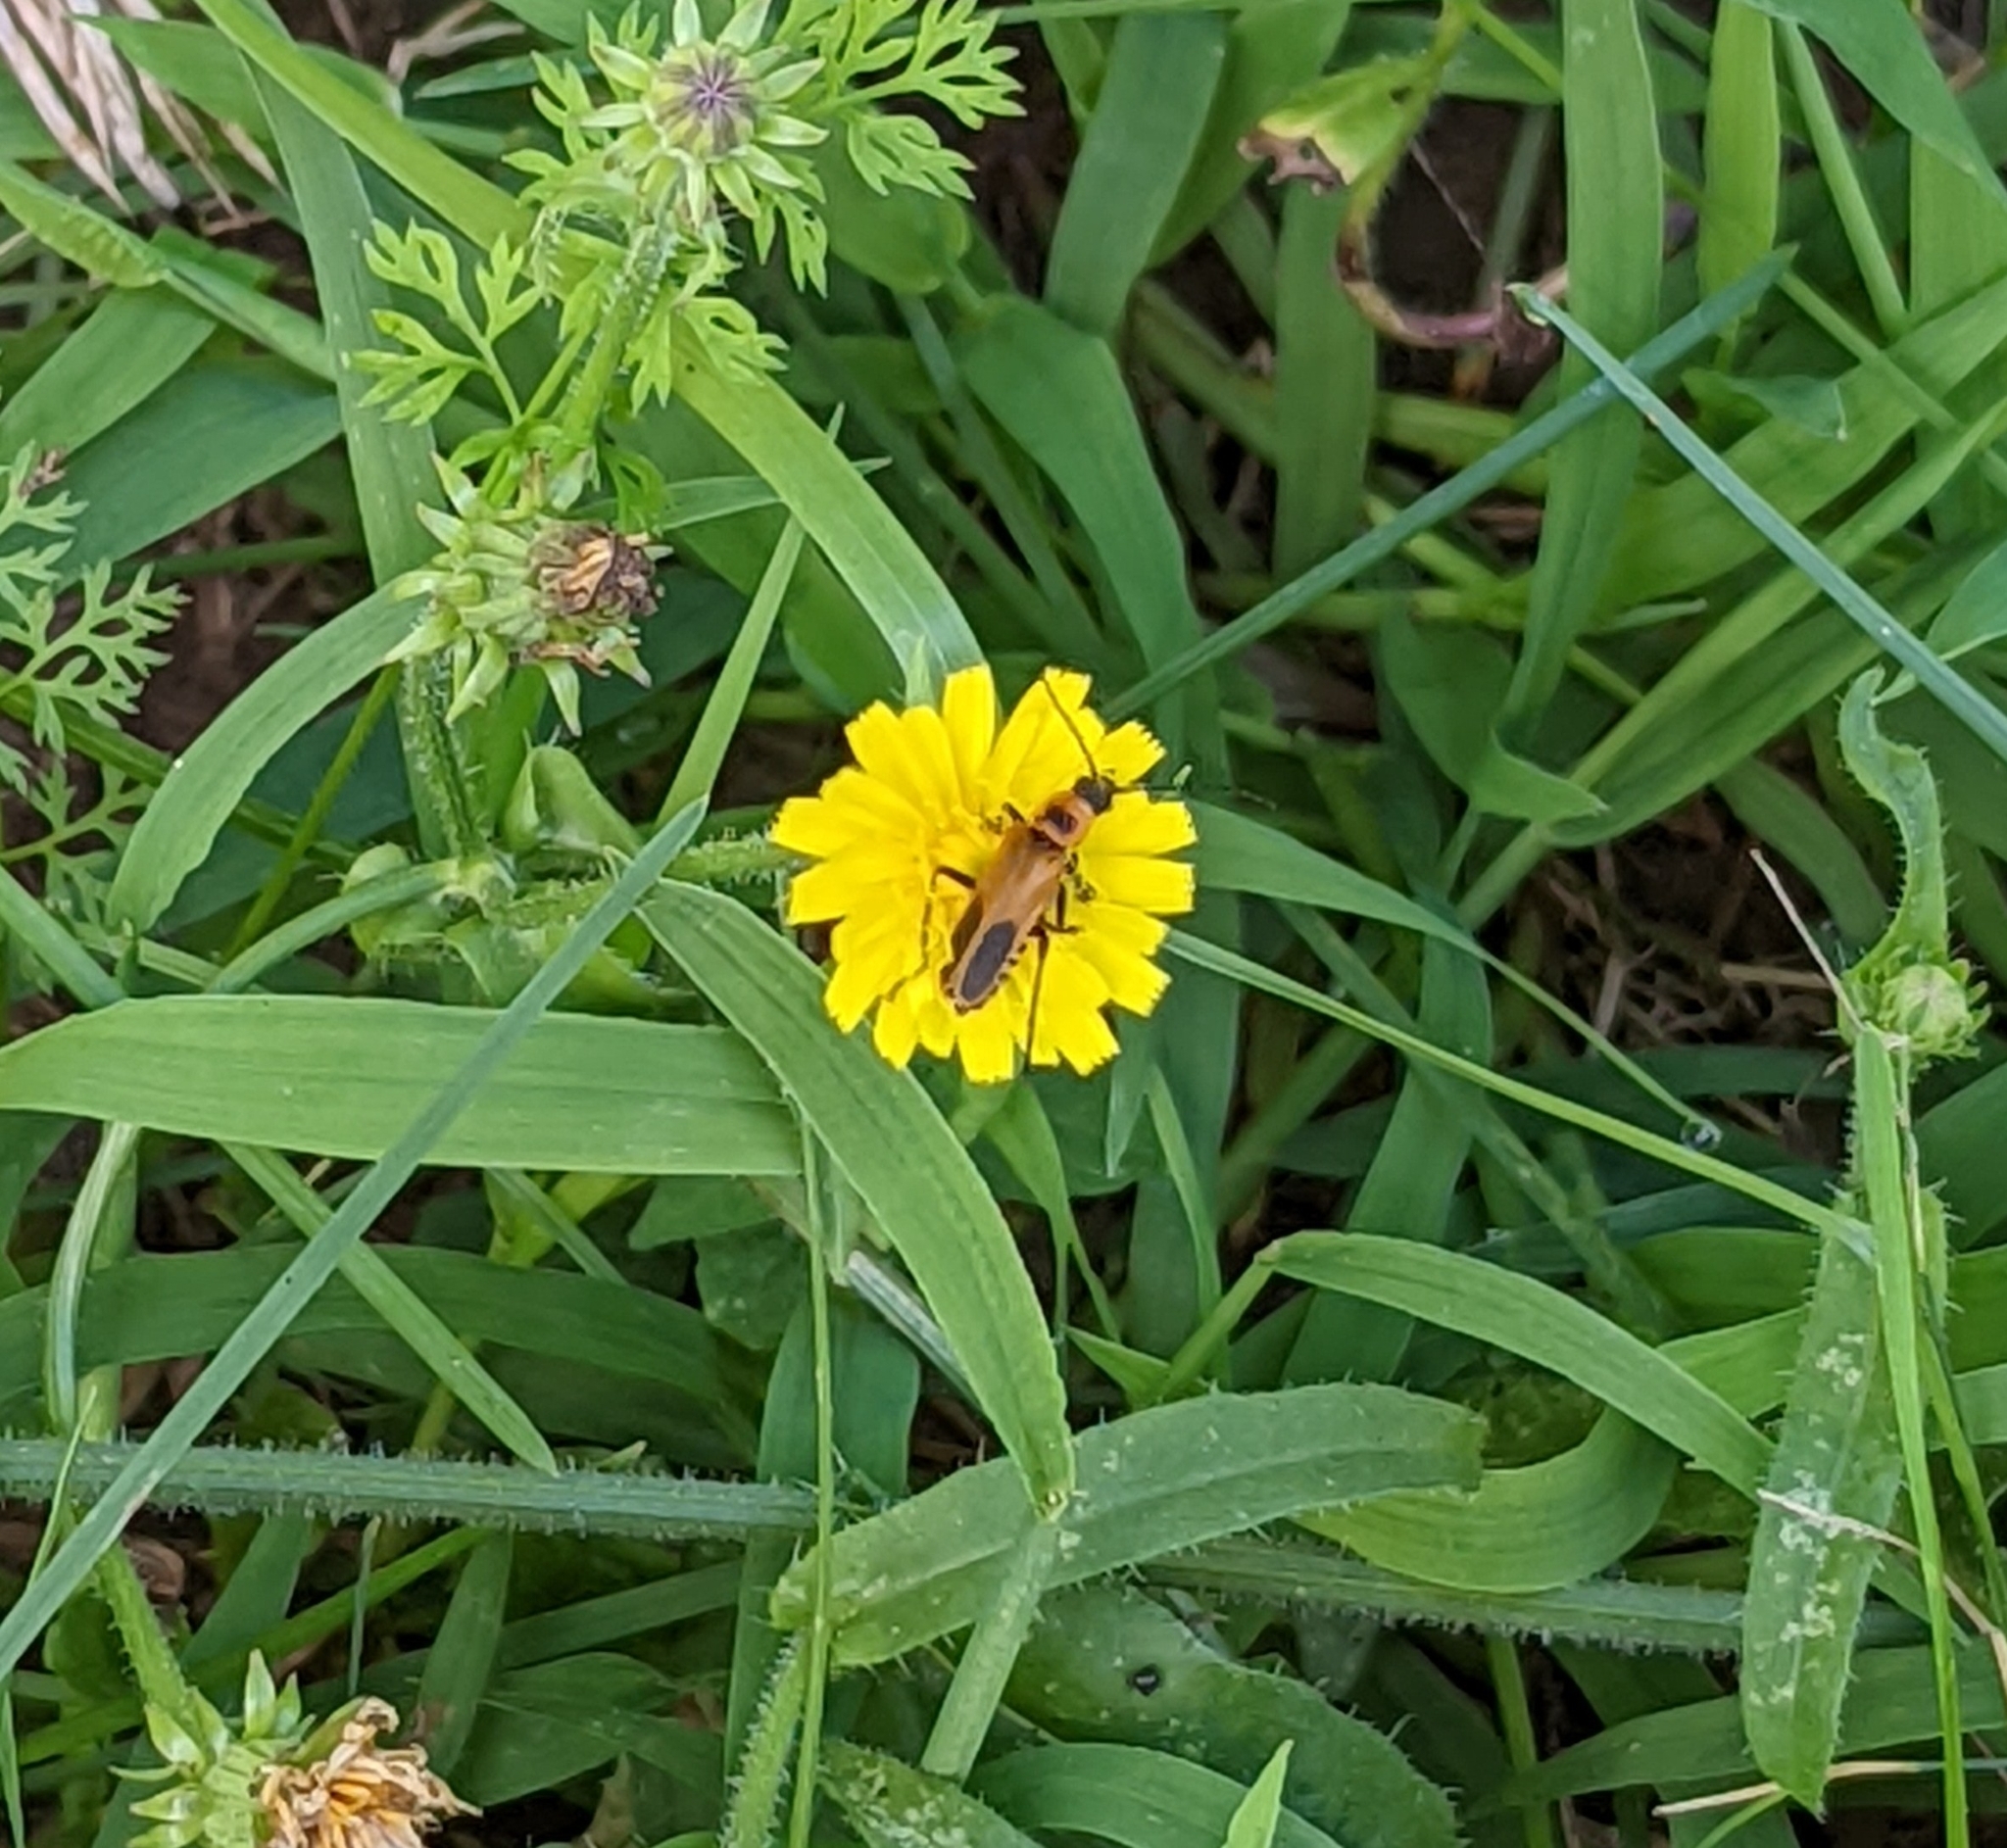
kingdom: Animalia
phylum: Arthropoda
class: Insecta
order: Coleoptera
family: Cantharidae
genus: Chauliognathus
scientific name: Chauliognathus pensylvanicus
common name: Goldenrod soldier beetle
